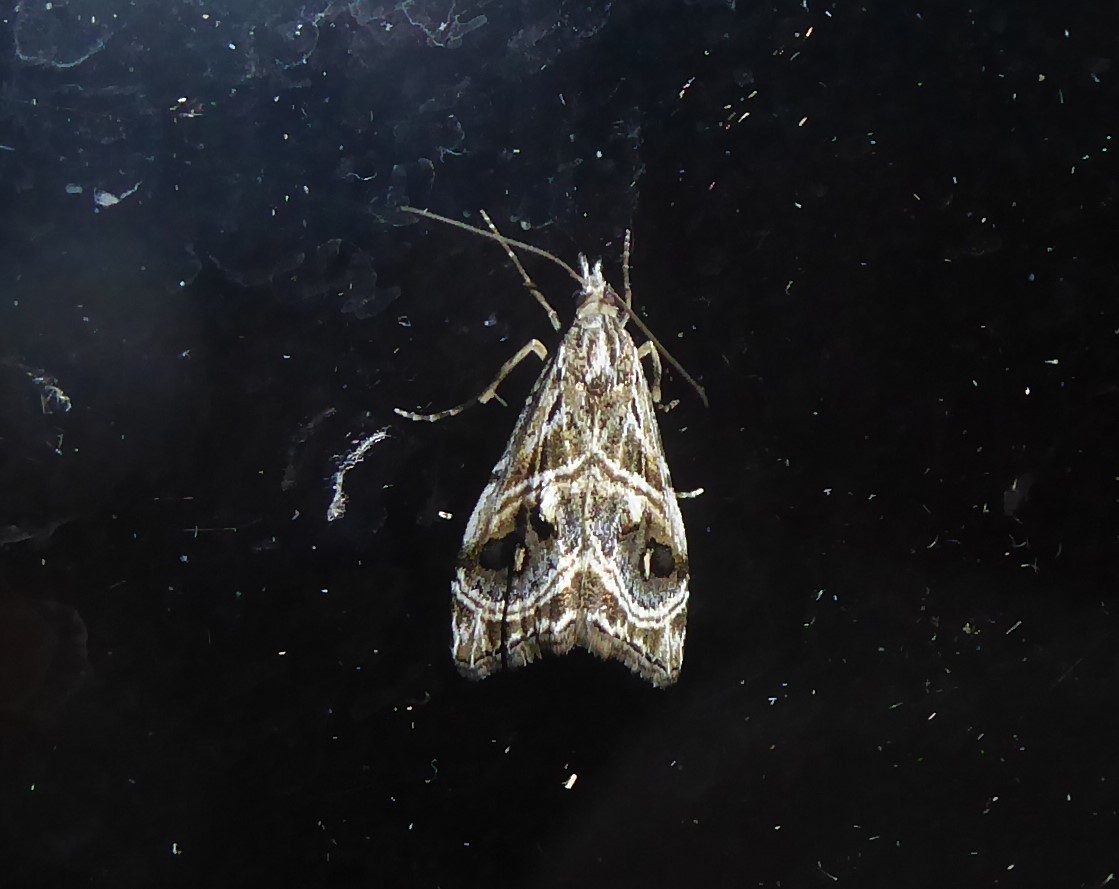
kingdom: Animalia
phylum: Arthropoda
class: Insecta
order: Lepidoptera
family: Crambidae
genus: Gadira
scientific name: Gadira acerella
